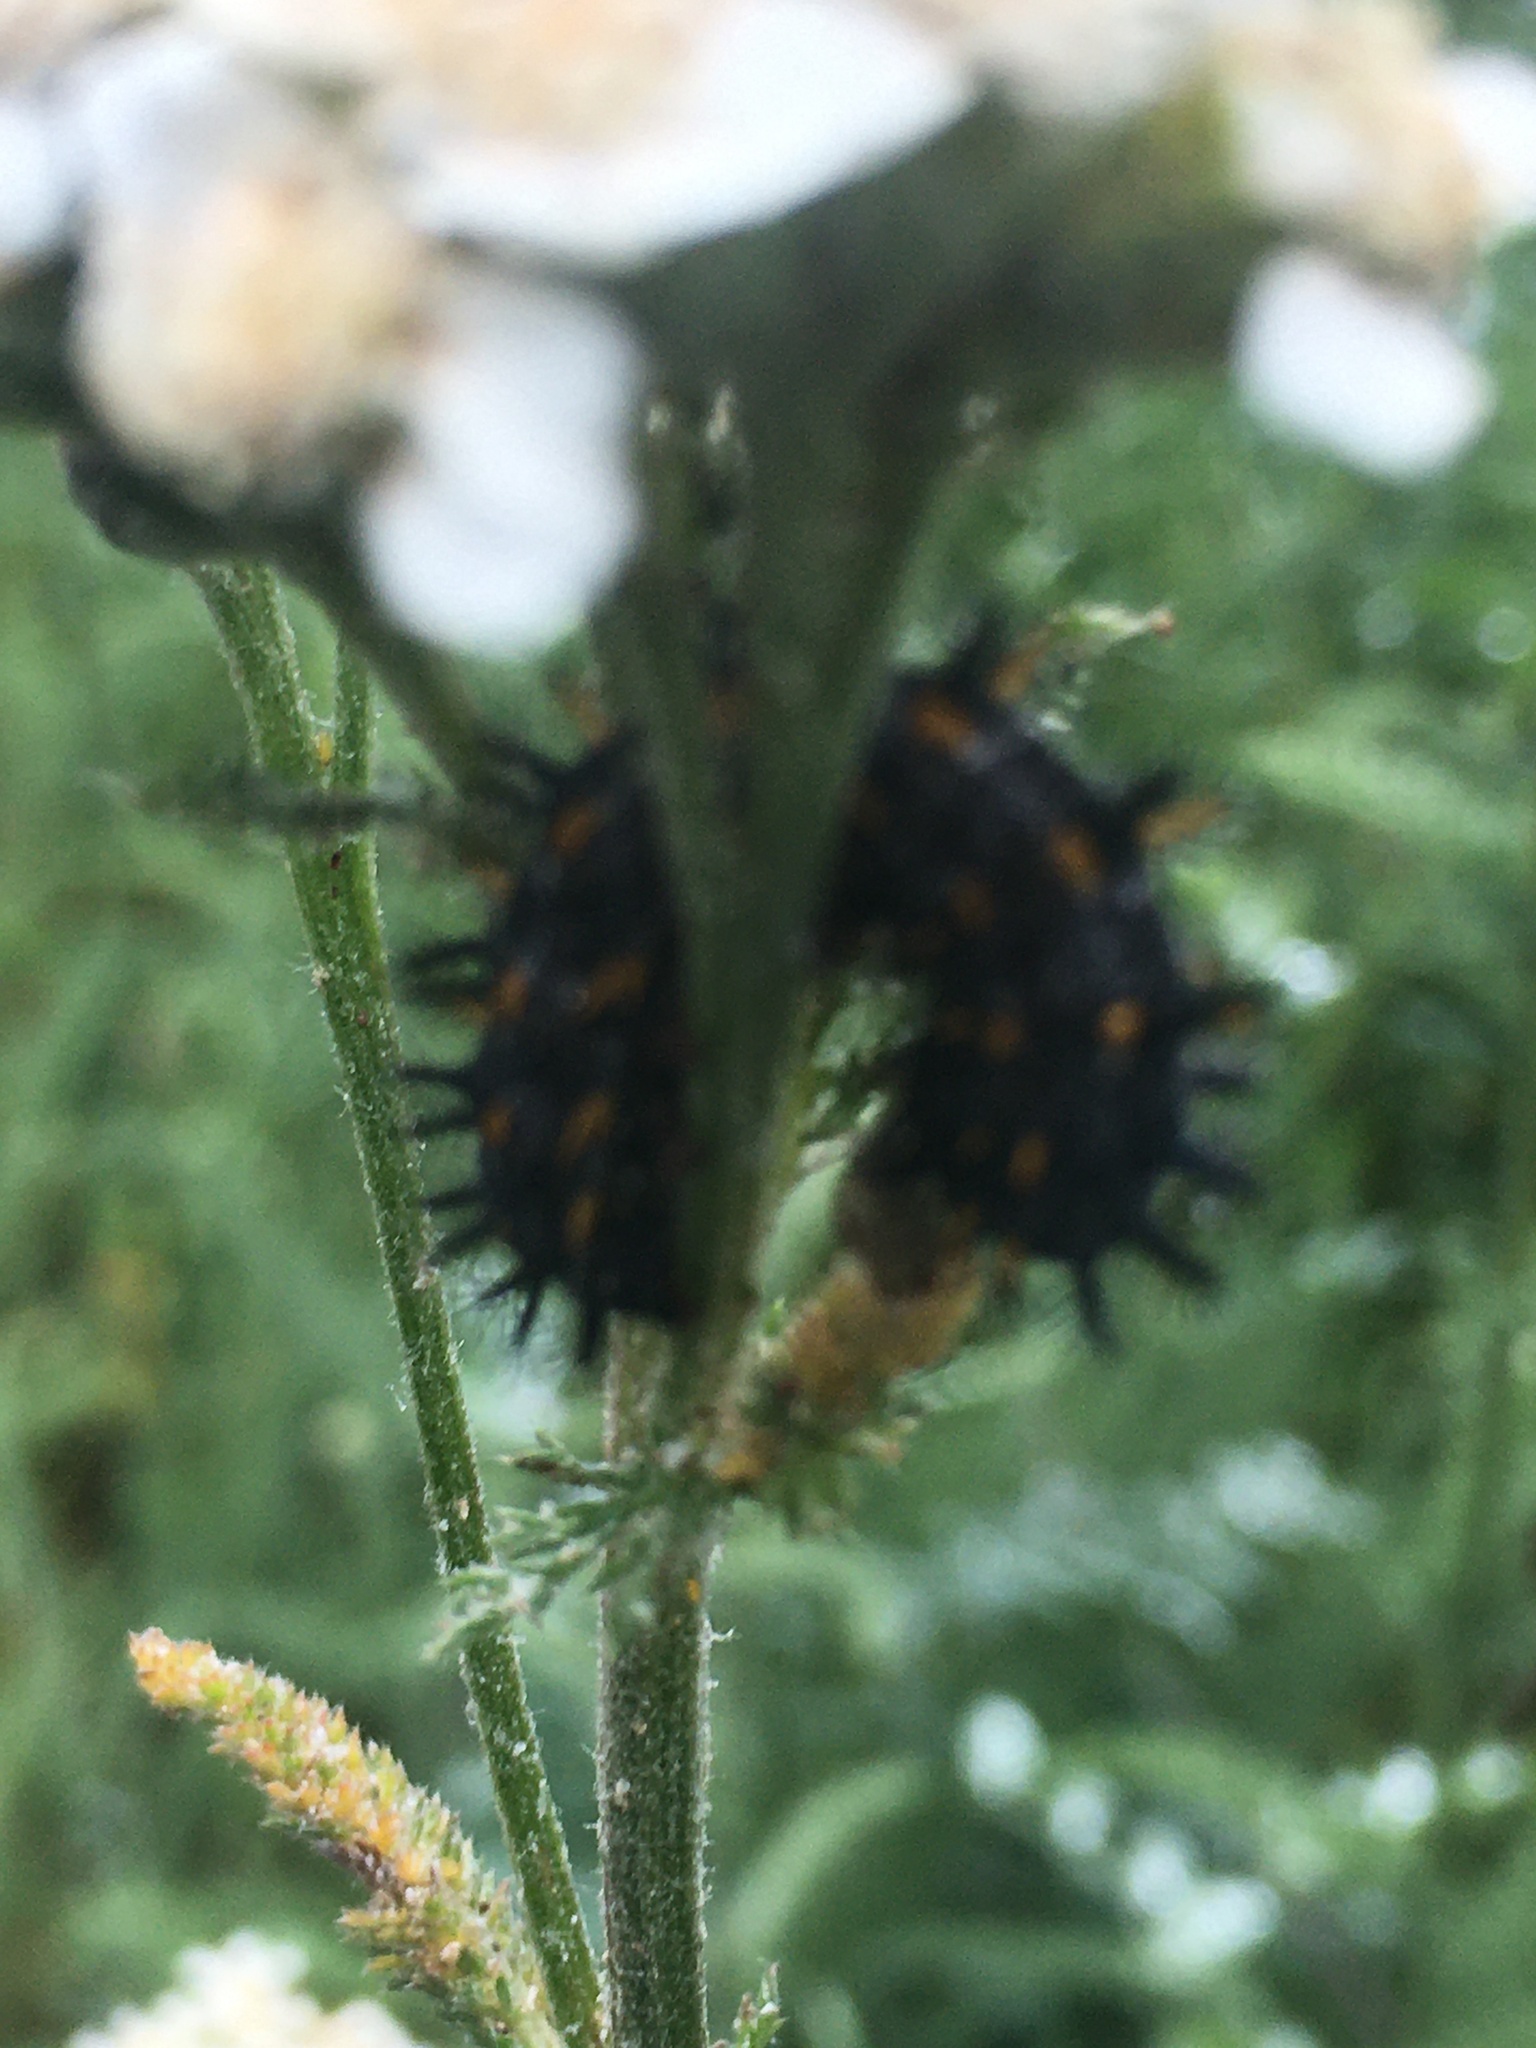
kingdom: Animalia
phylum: Arthropoda
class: Insecta
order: Lepidoptera
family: Nymphalidae
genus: Occidryas
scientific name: Occidryas chalcedona
